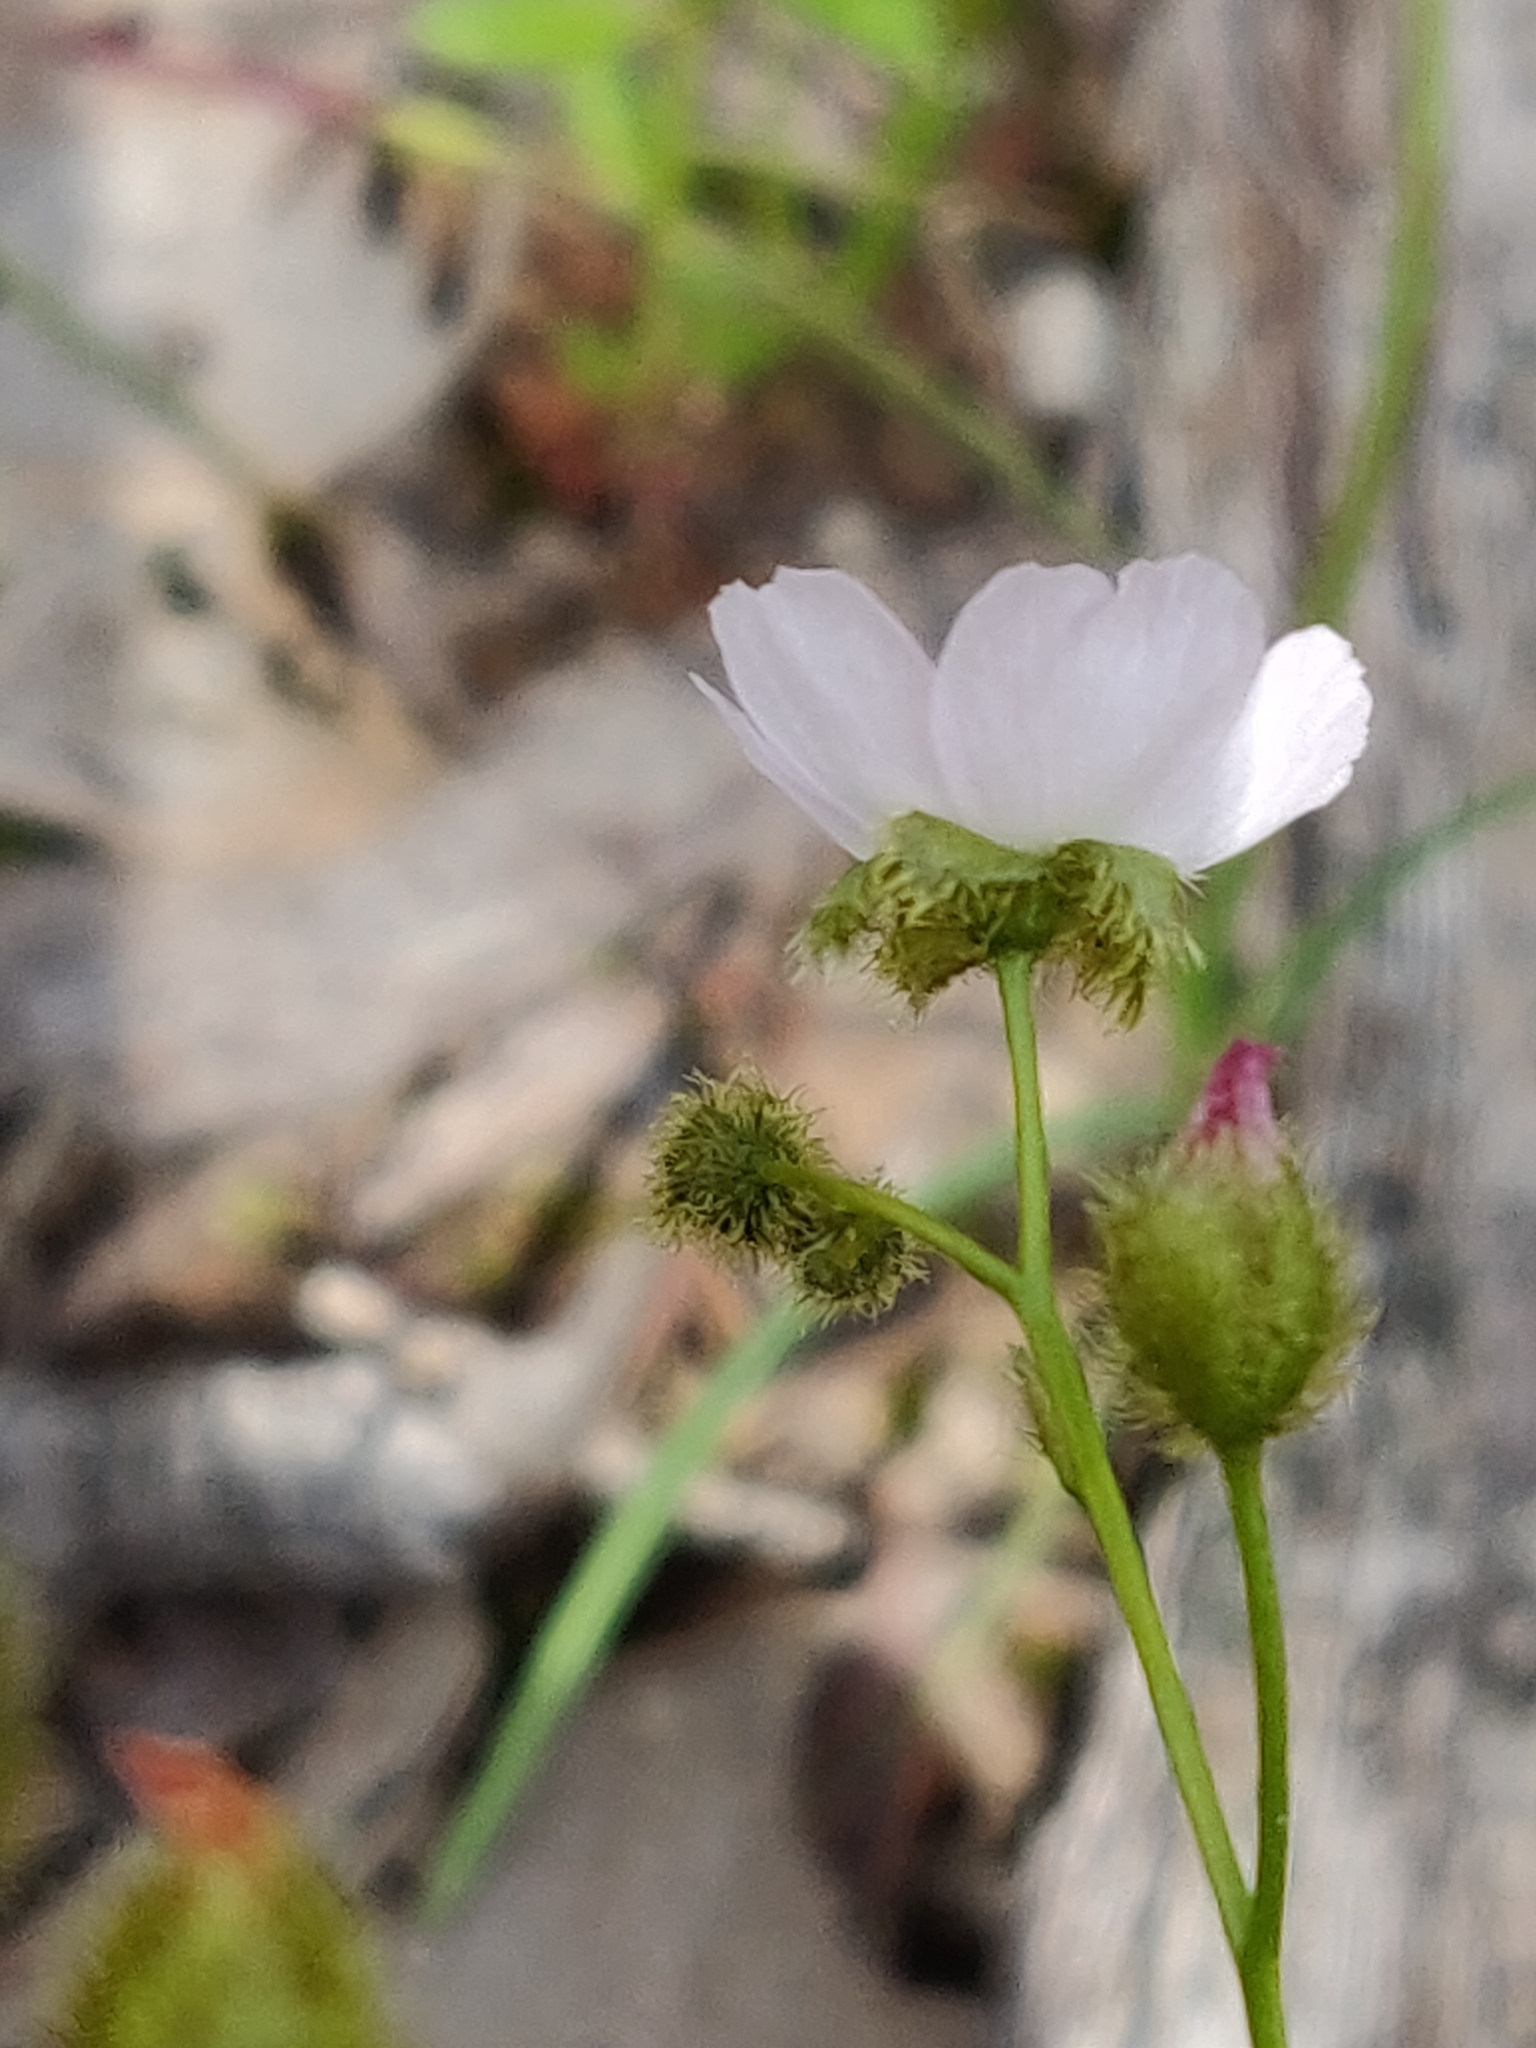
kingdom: Plantae
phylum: Tracheophyta
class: Magnoliopsida
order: Caryophyllales
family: Droseraceae
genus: Drosera
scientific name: Drosera gunniana
